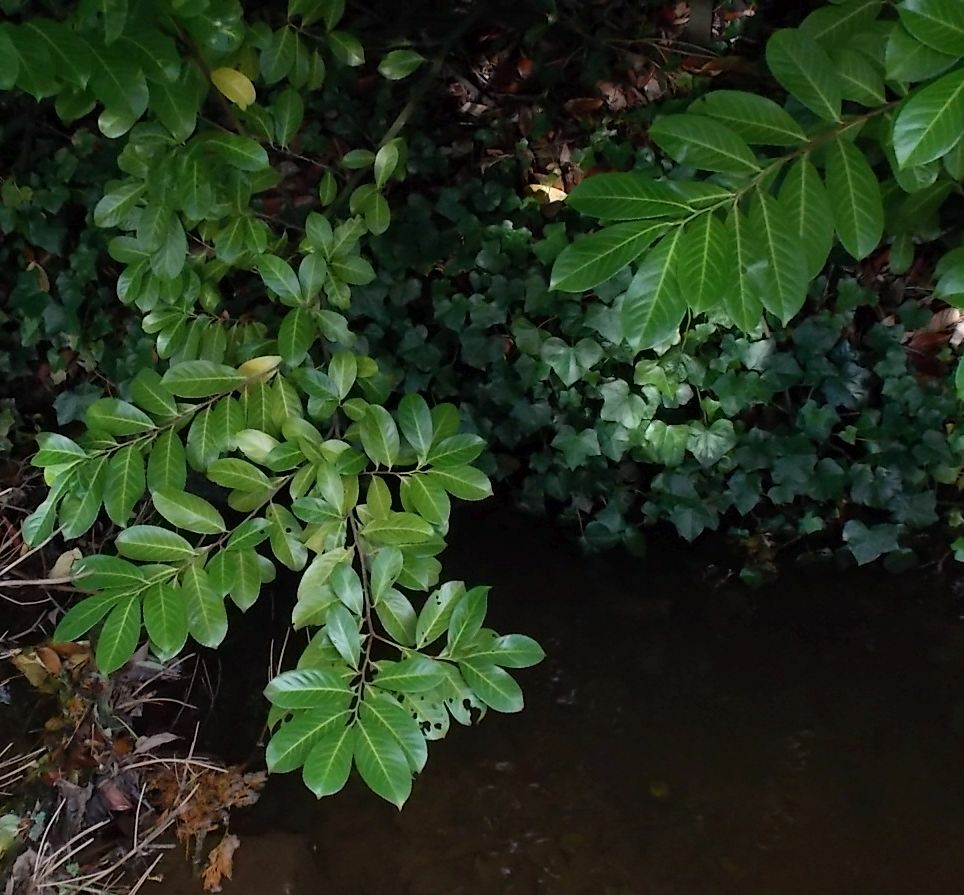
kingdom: Plantae
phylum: Tracheophyta
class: Magnoliopsida
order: Rosales
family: Rosaceae
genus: Prunus
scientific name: Prunus laurocerasus
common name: Cherry laurel
